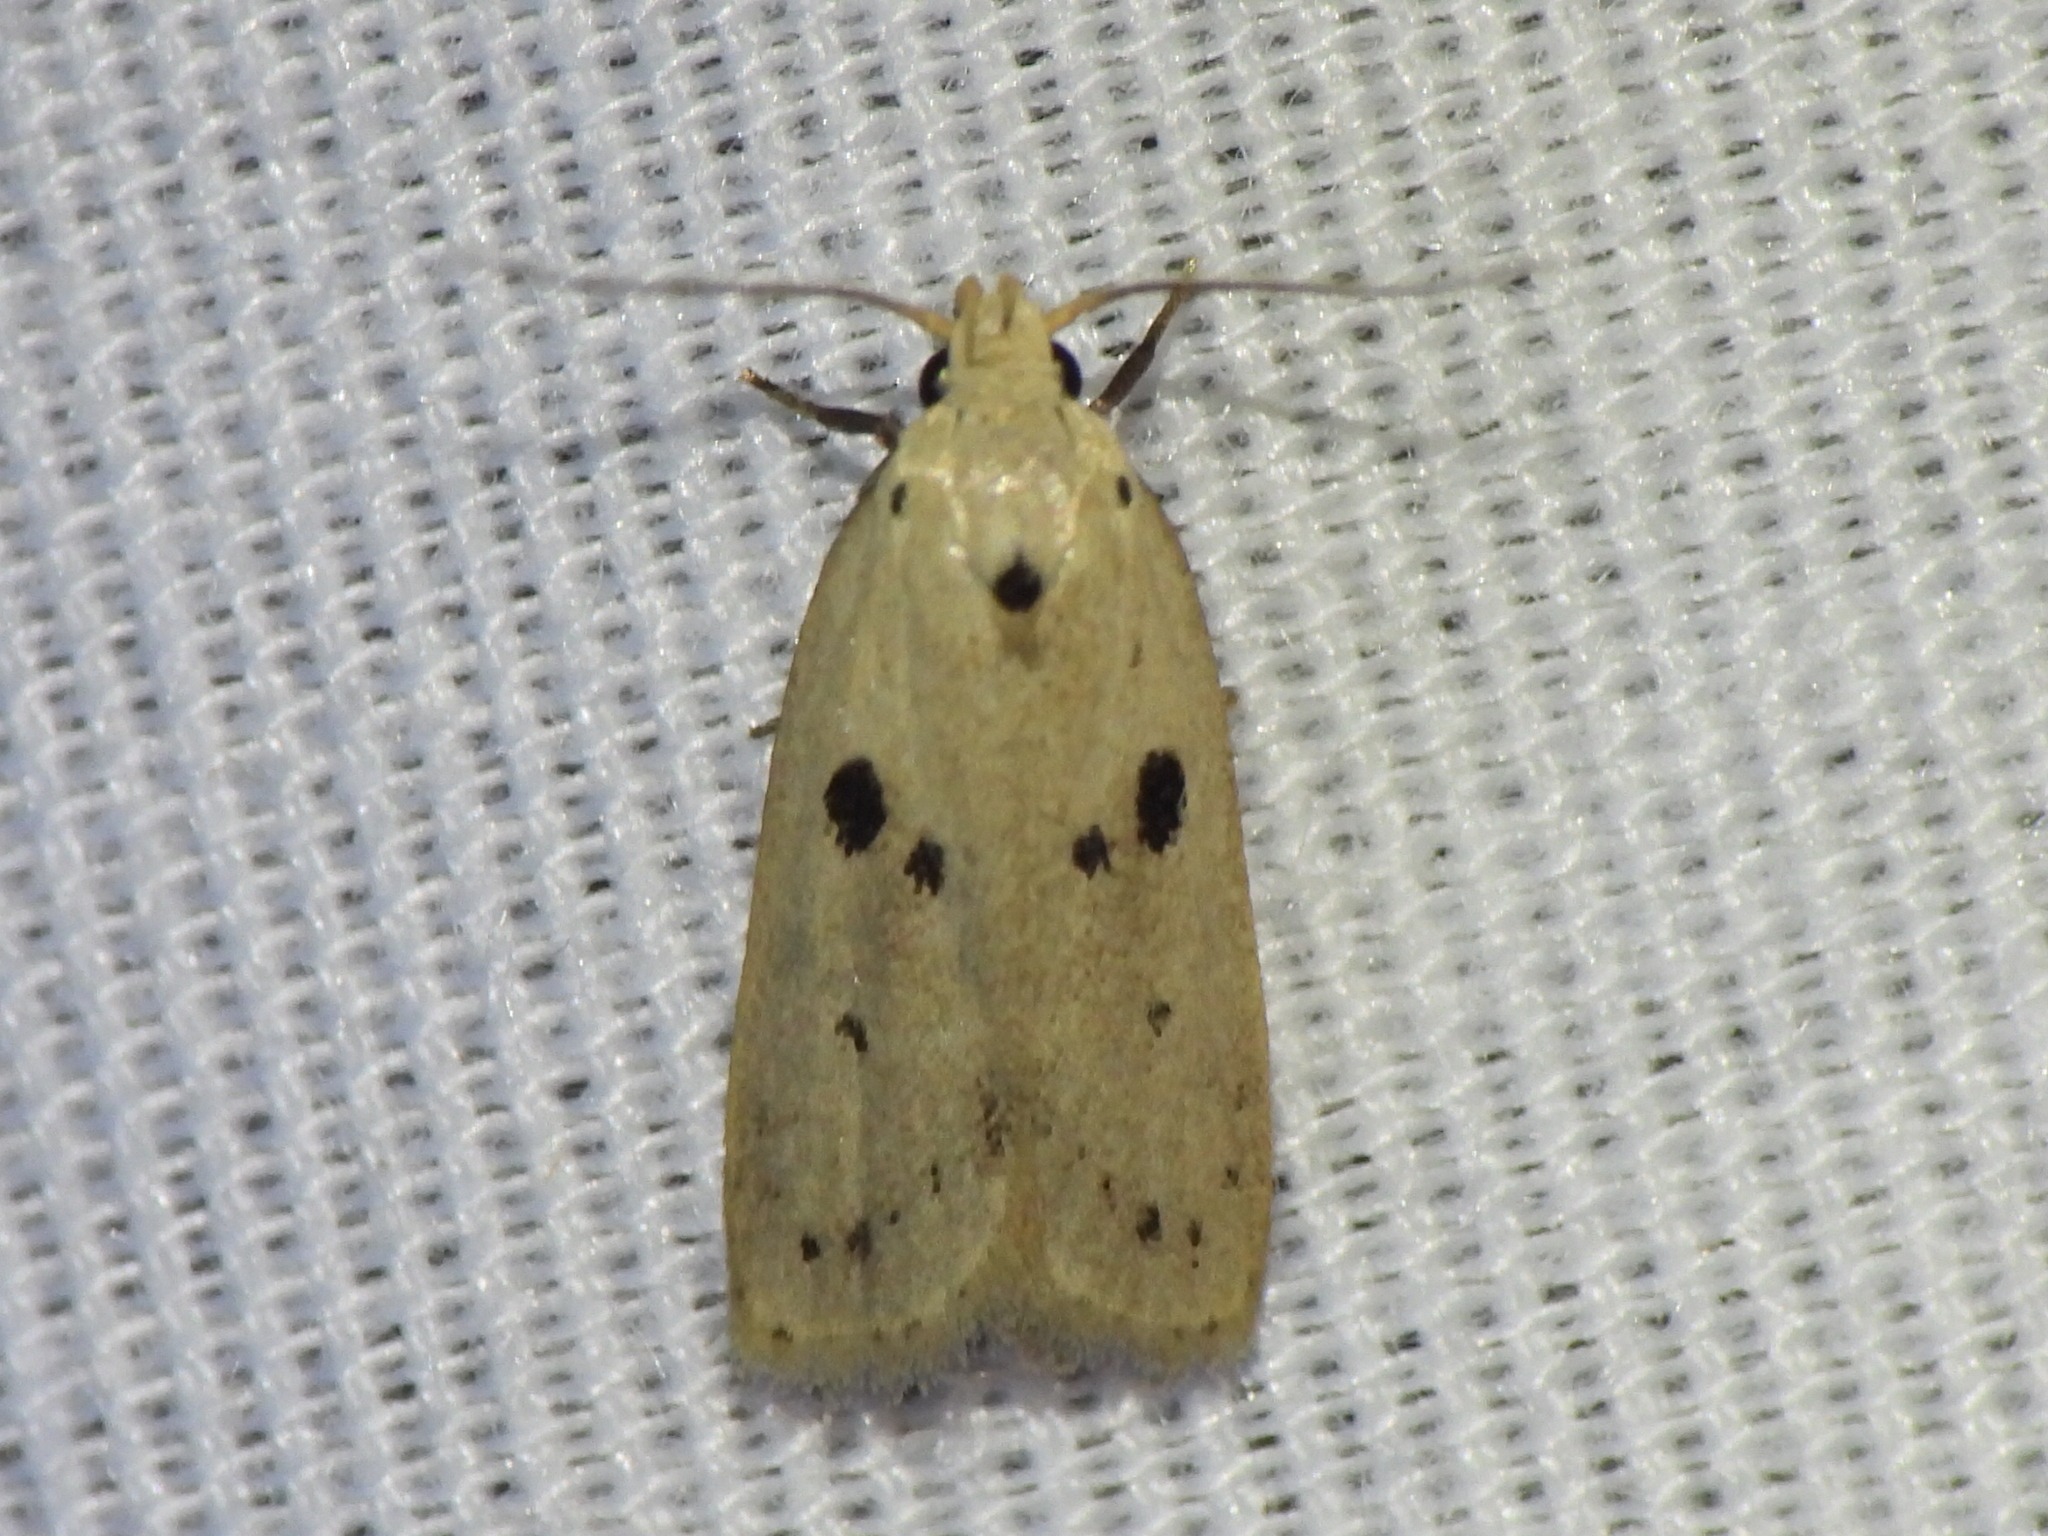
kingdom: Animalia
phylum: Arthropoda
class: Insecta
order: Lepidoptera
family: Peleopodidae
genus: Scythropiodes
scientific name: Scythropiodes issikii
